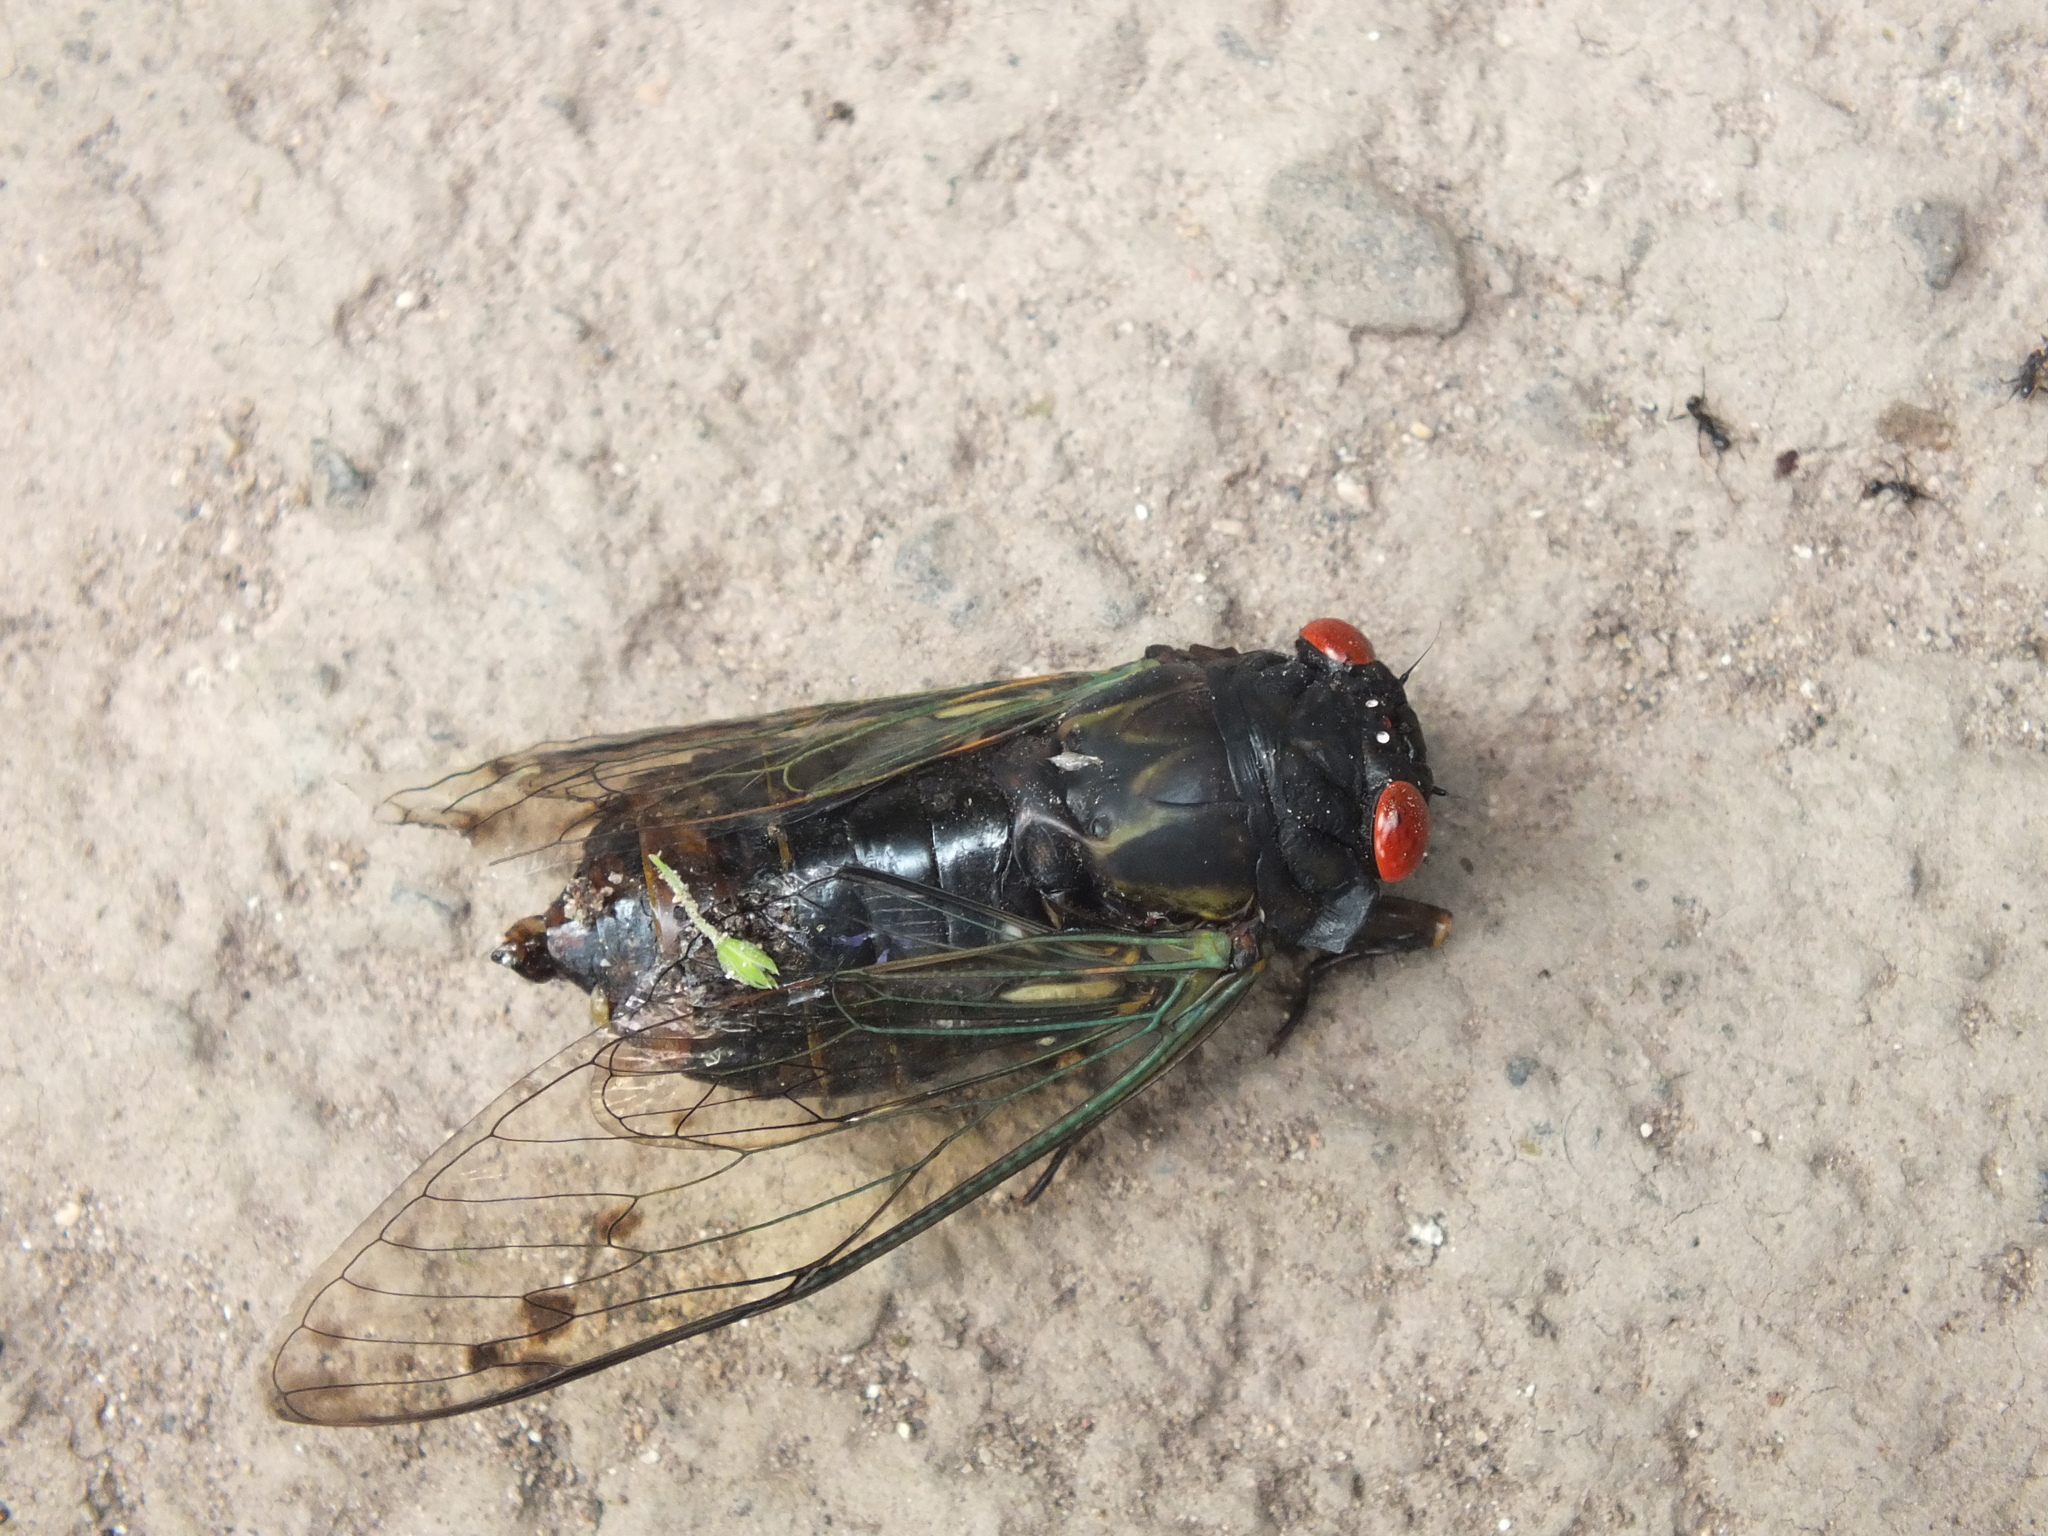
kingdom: Animalia
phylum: Arthropoda
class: Insecta
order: Hemiptera
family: Cicadidae
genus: Odopoea
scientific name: Odopoea funesta
